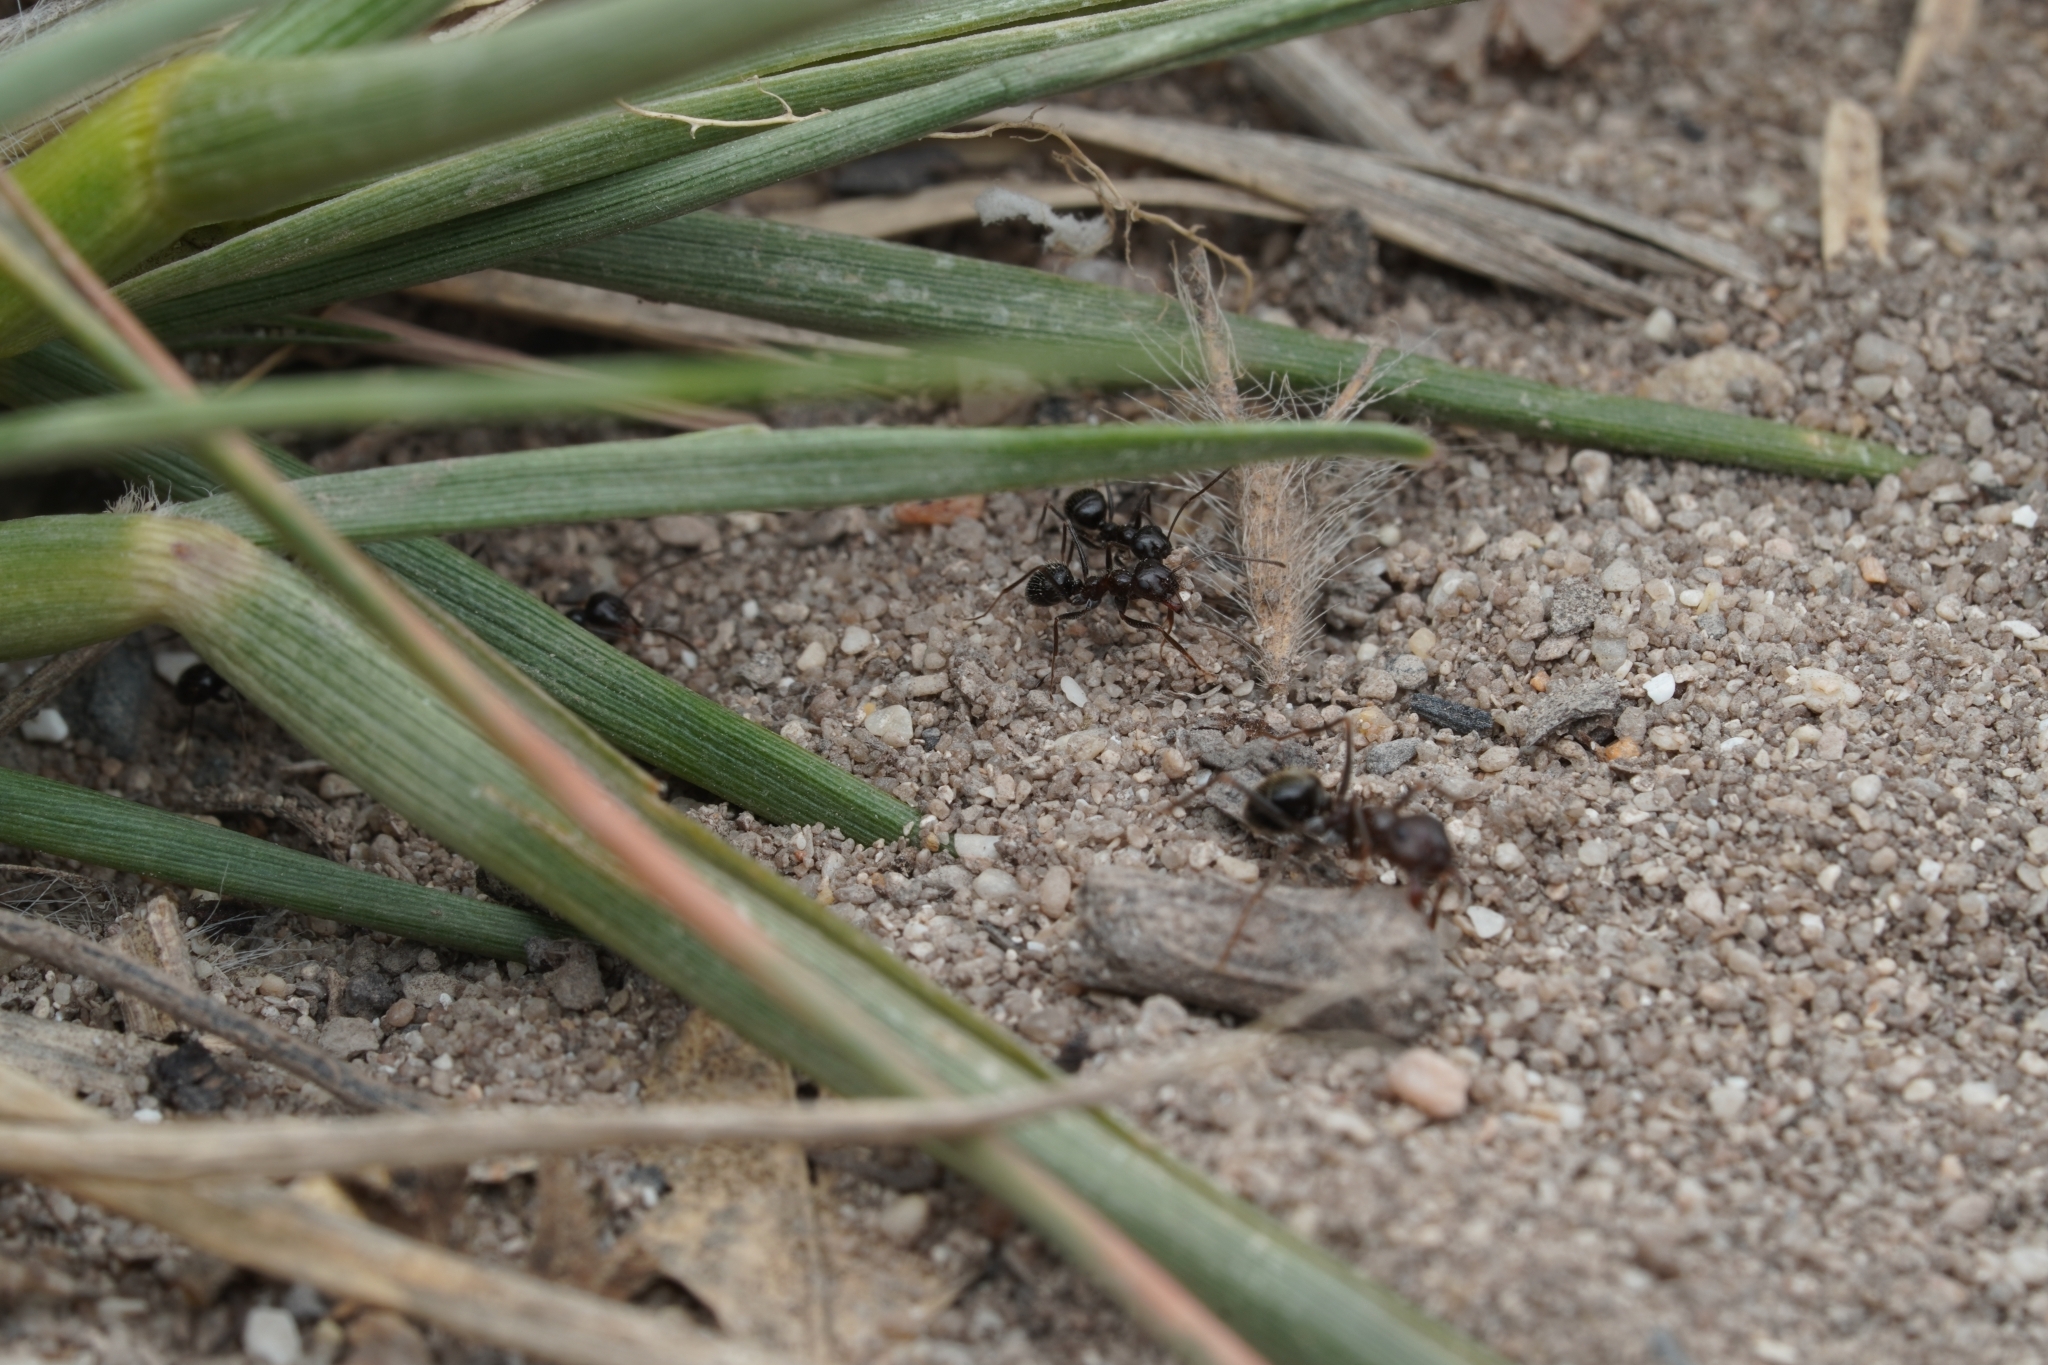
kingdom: Animalia
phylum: Arthropoda
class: Insecta
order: Hymenoptera
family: Formicidae
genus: Anoplolepis
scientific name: Anoplolepis steingroeveri
